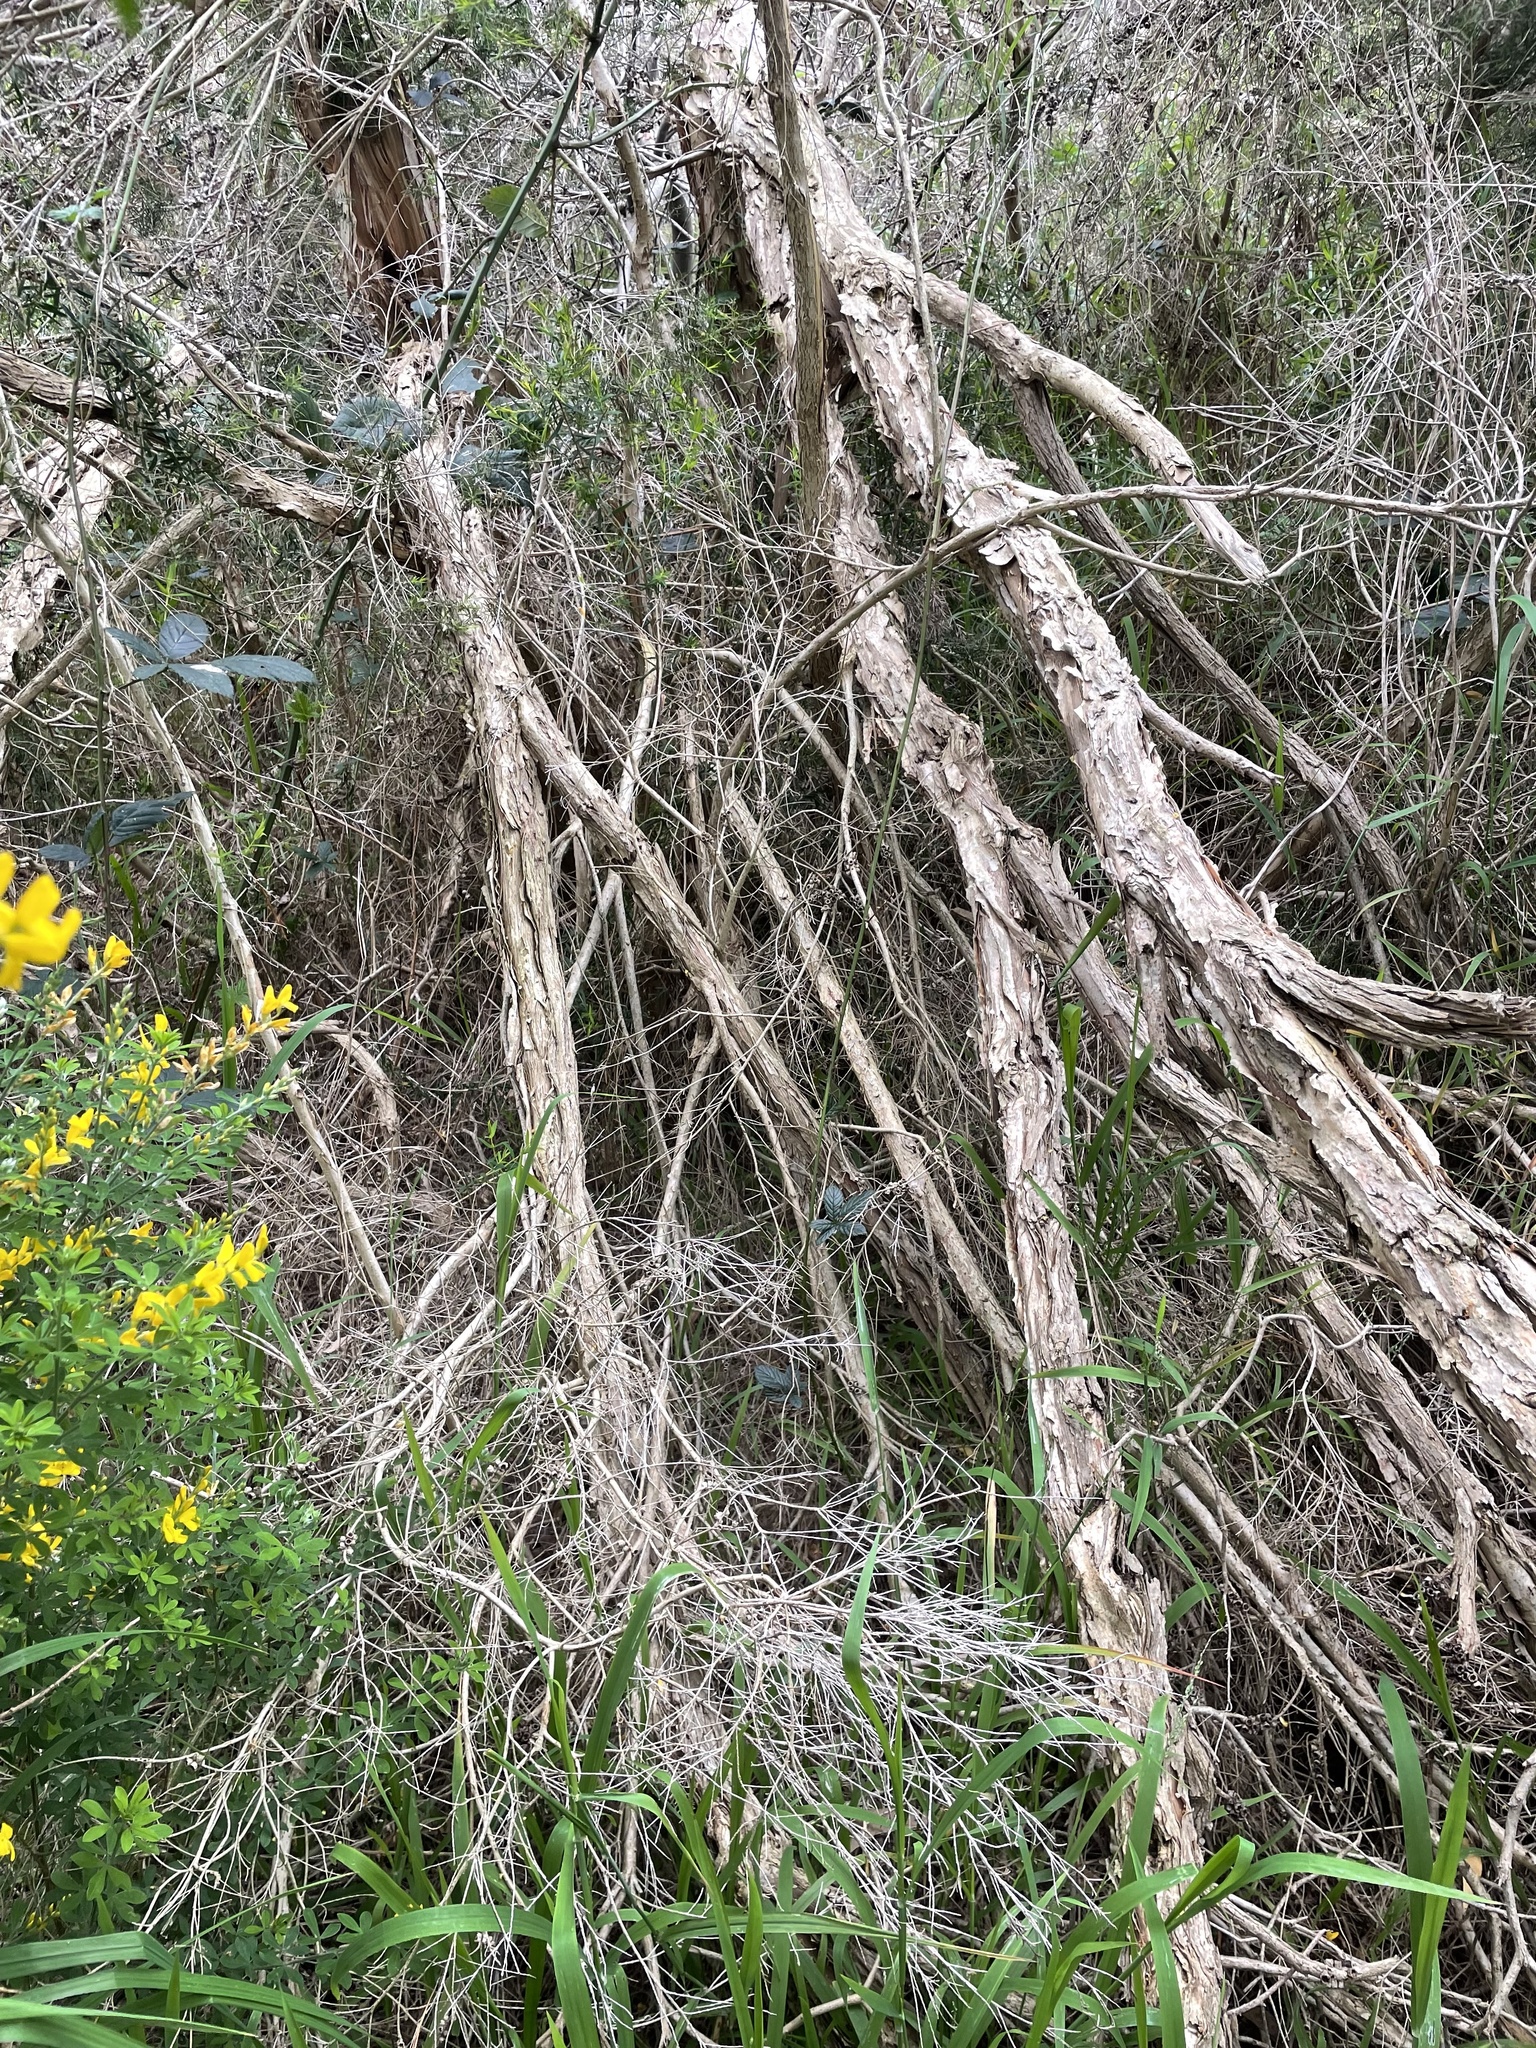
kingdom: Plantae
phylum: Tracheophyta
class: Magnoliopsida
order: Myrtales
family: Myrtaceae
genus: Melaleuca
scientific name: Melaleuca armillaris
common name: Bracelet honey myrtle
